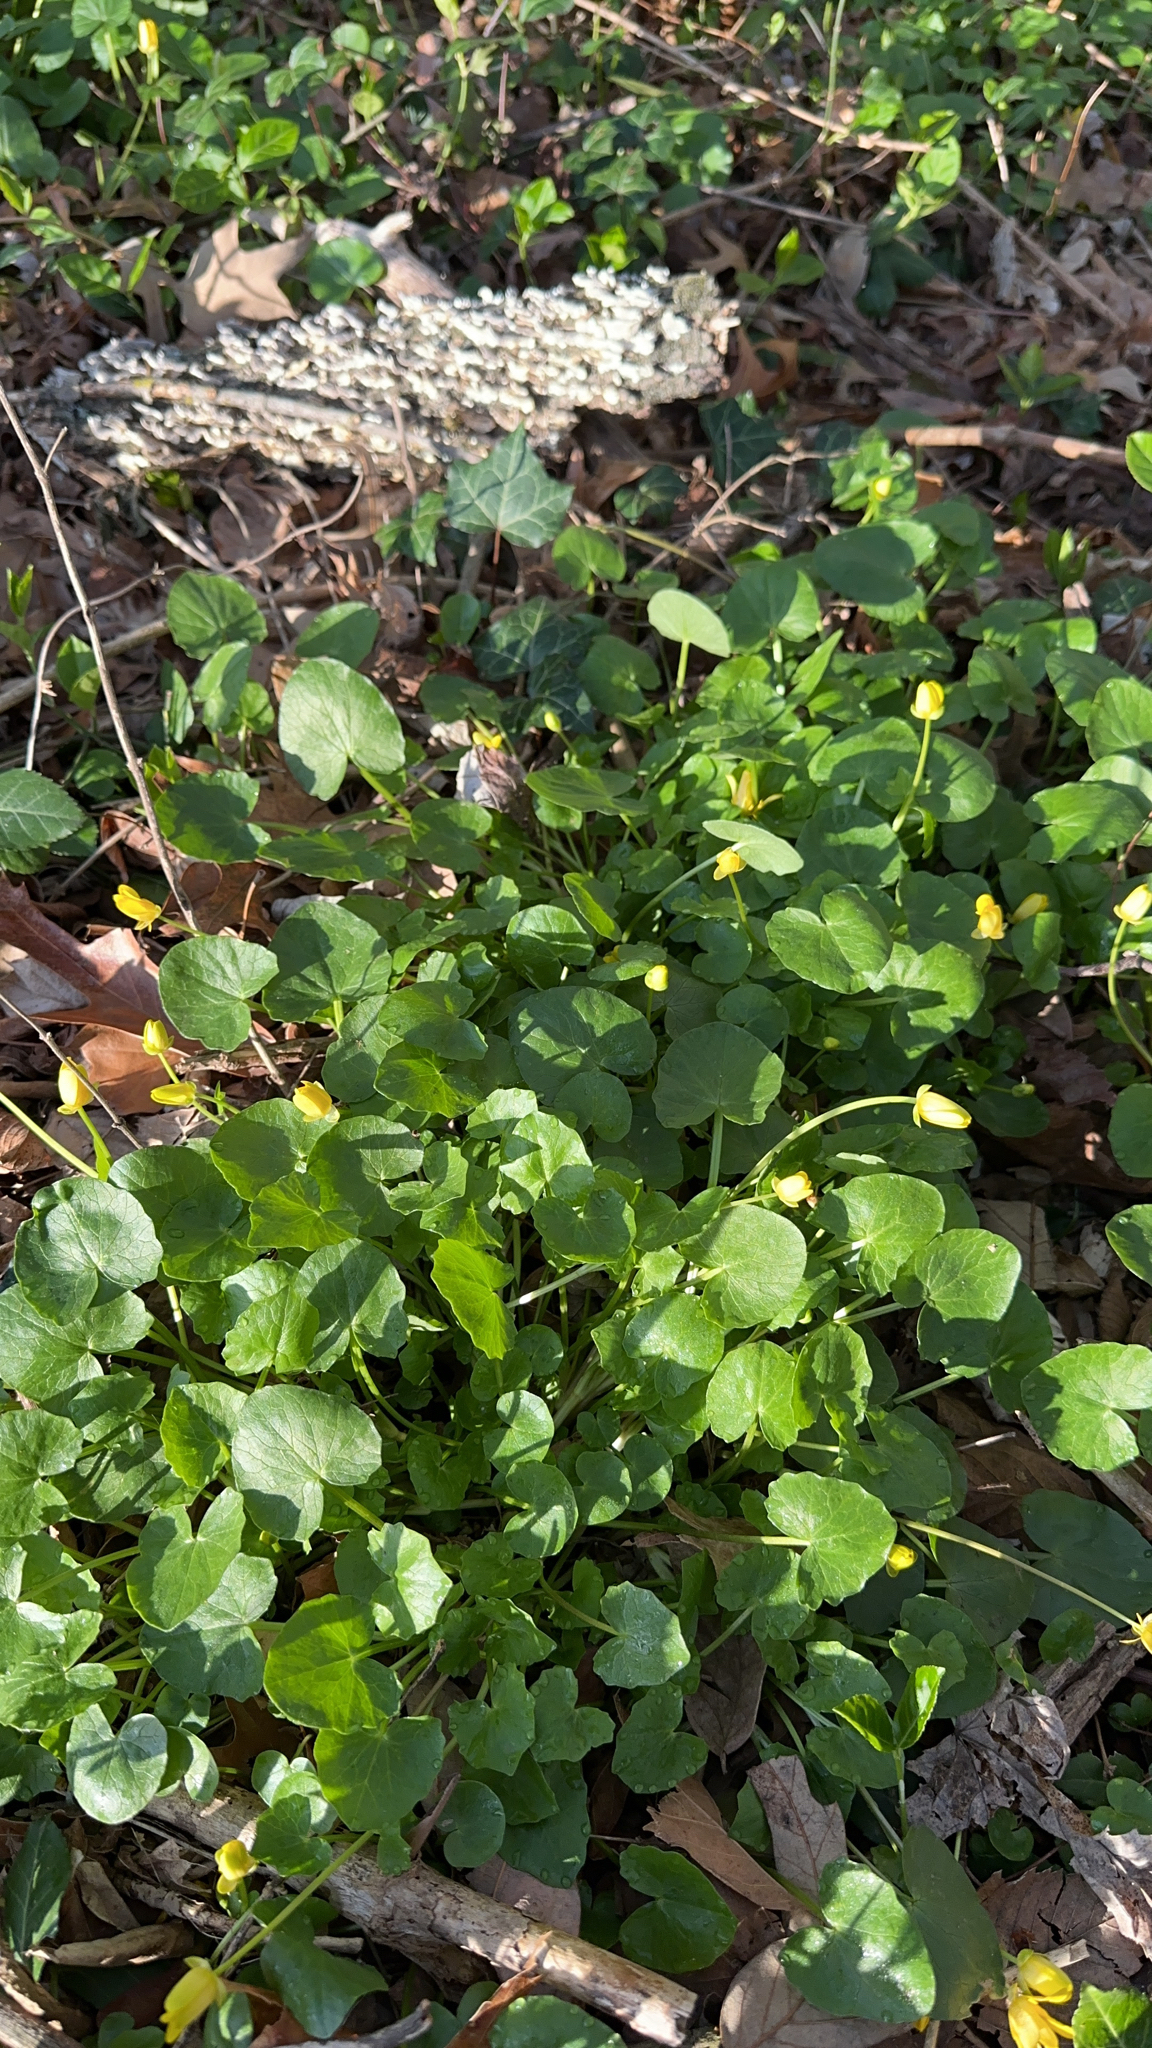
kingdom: Plantae
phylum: Tracheophyta
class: Magnoliopsida
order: Ranunculales
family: Ranunculaceae
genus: Ficaria
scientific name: Ficaria verna
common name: Lesser celandine
